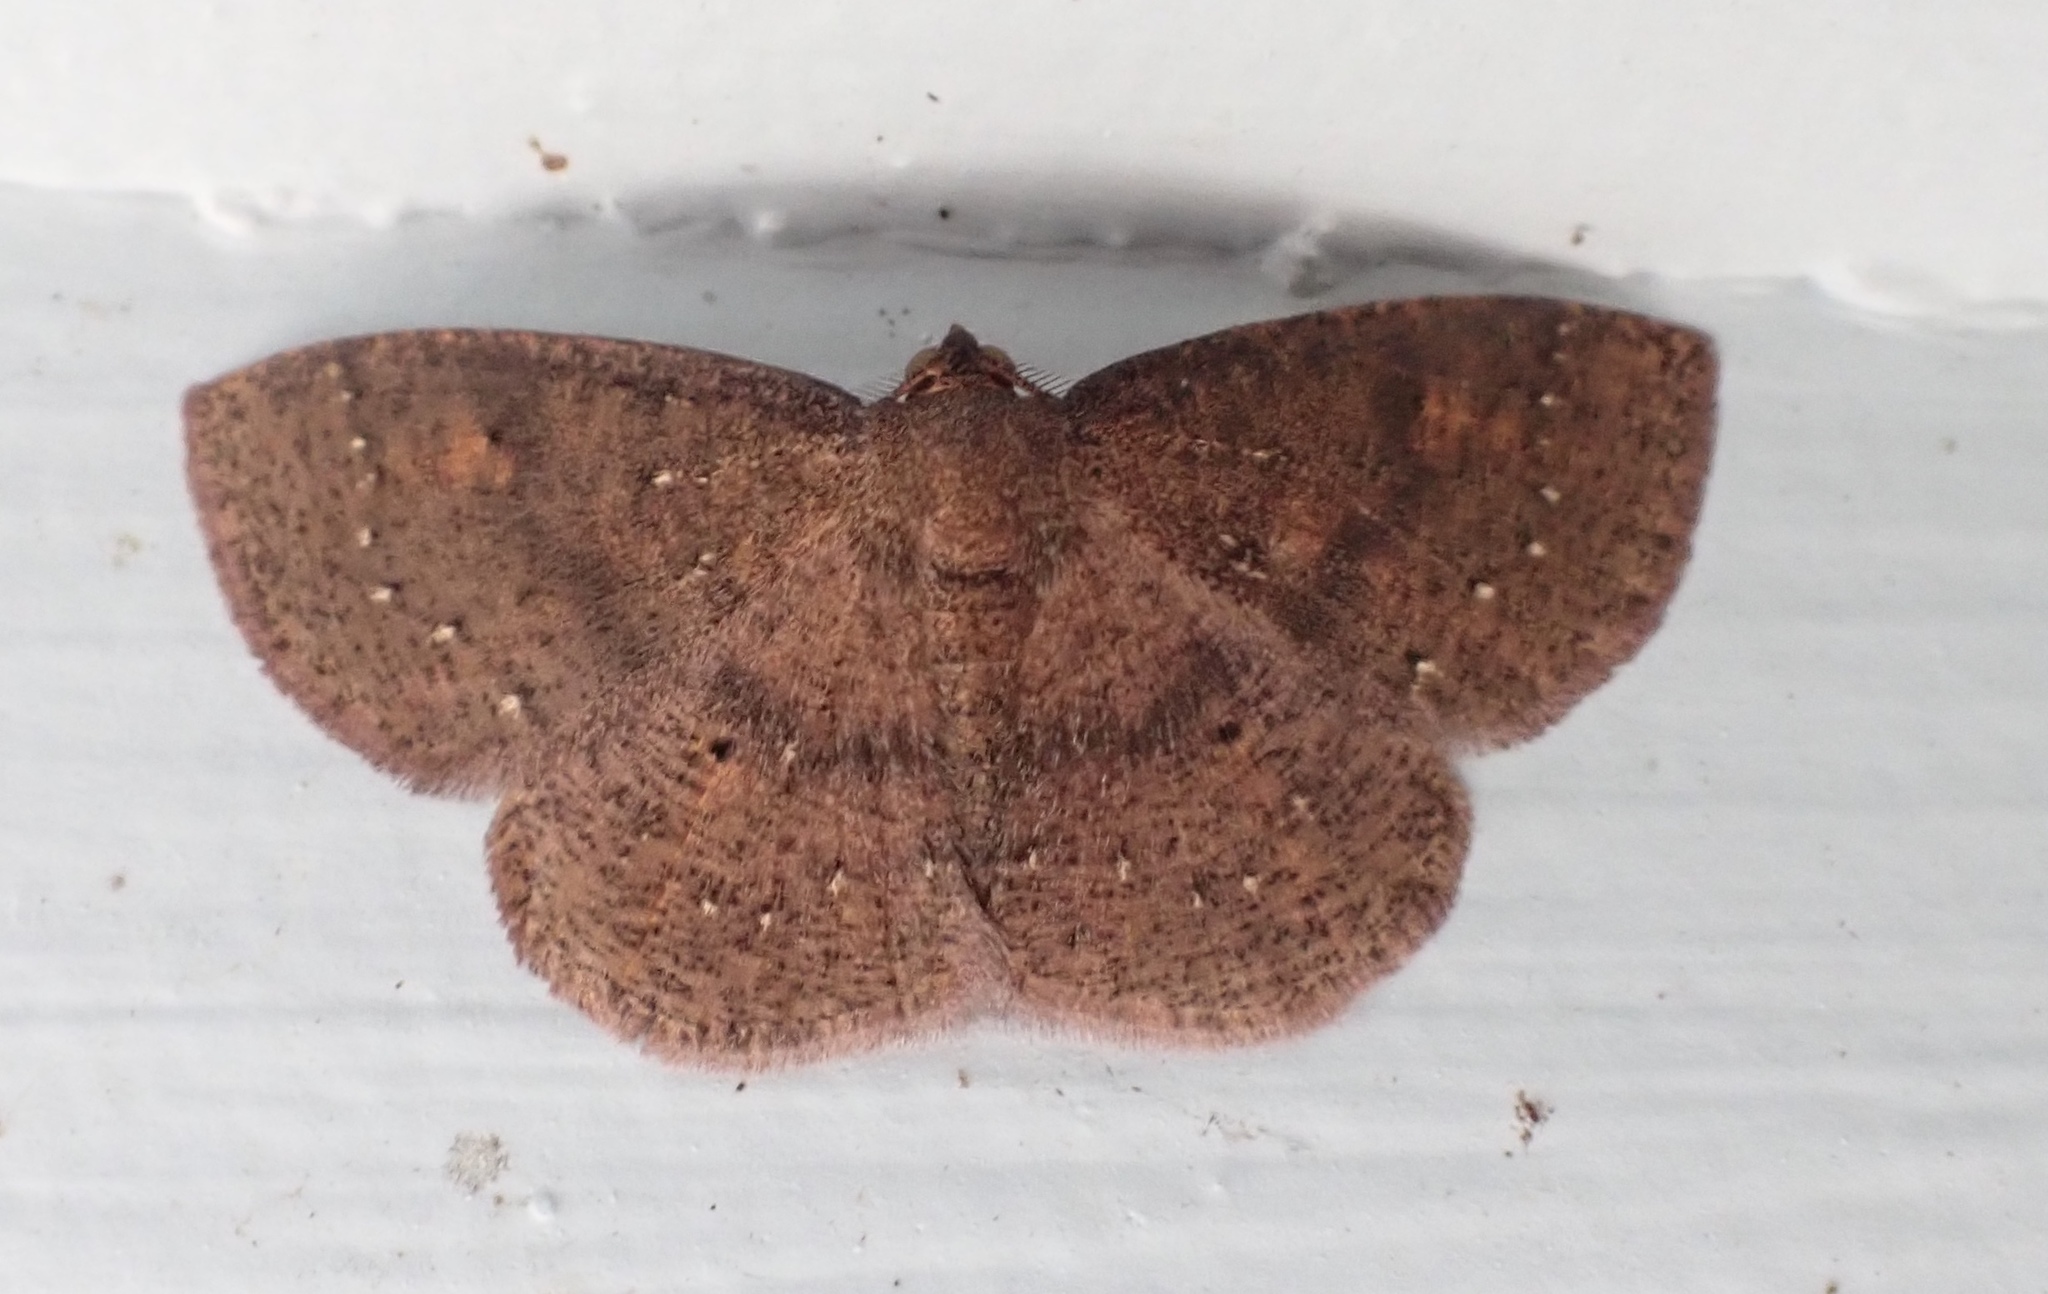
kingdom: Animalia
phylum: Arthropoda
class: Insecta
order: Lepidoptera
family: Geometridae
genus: Ilexia
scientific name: Ilexia intractata
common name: Black-dotted ruddy moth
